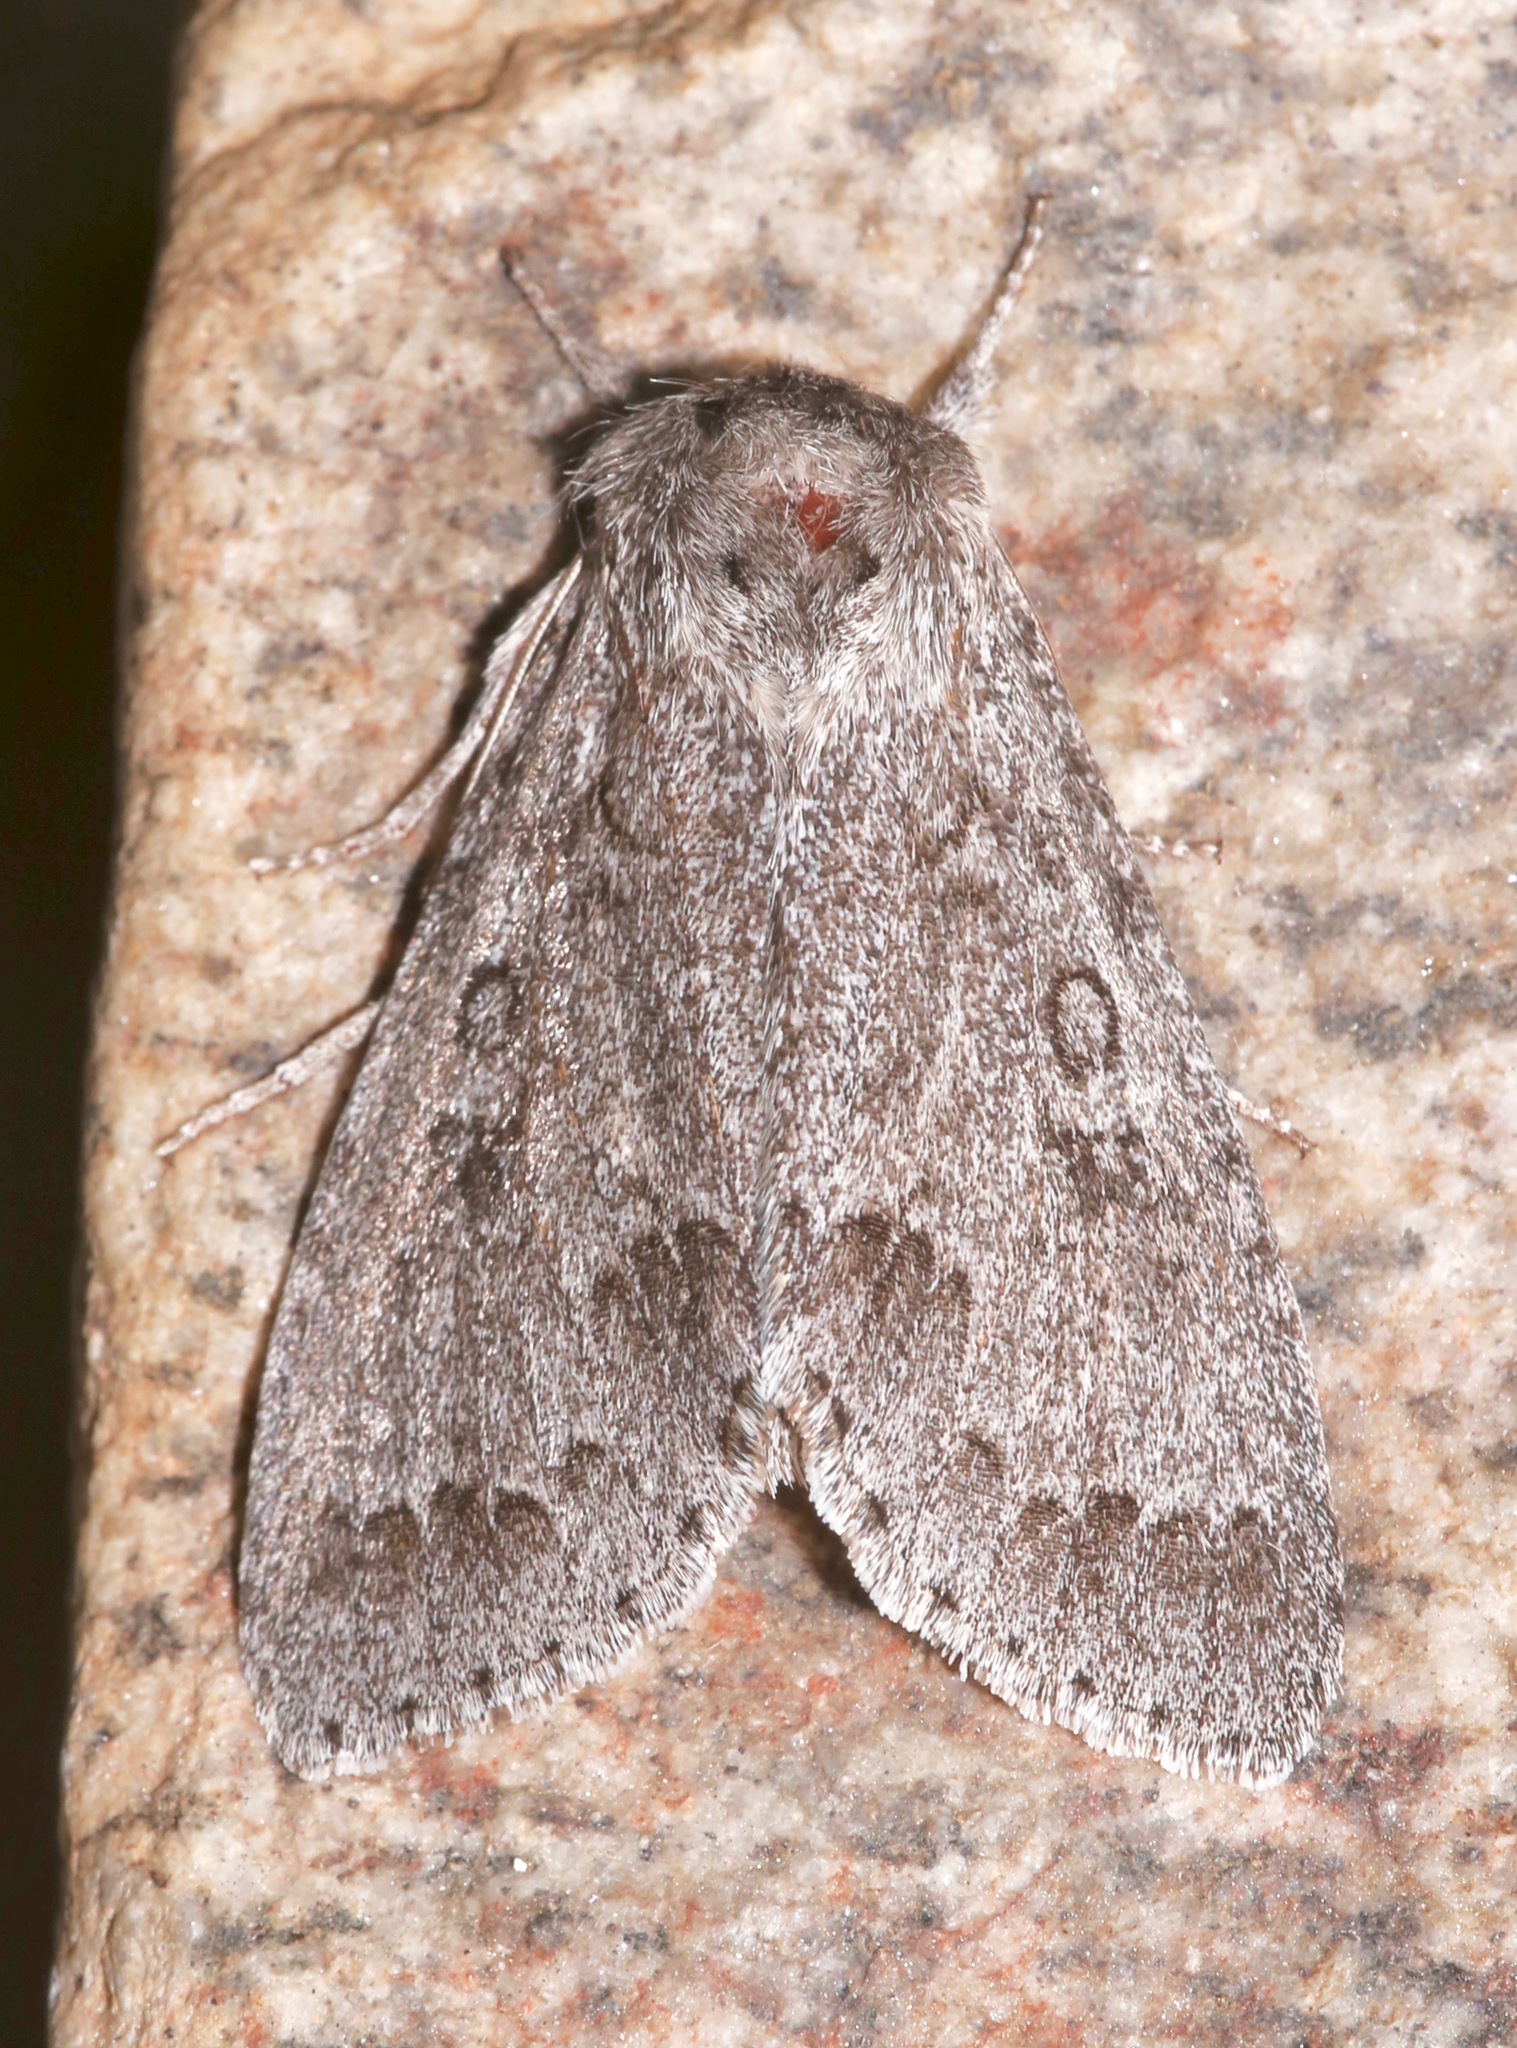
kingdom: Animalia
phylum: Arthropoda
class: Insecta
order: Lepidoptera
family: Noctuidae
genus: Acronicta
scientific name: Acronicta insita
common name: Large gray dagger
